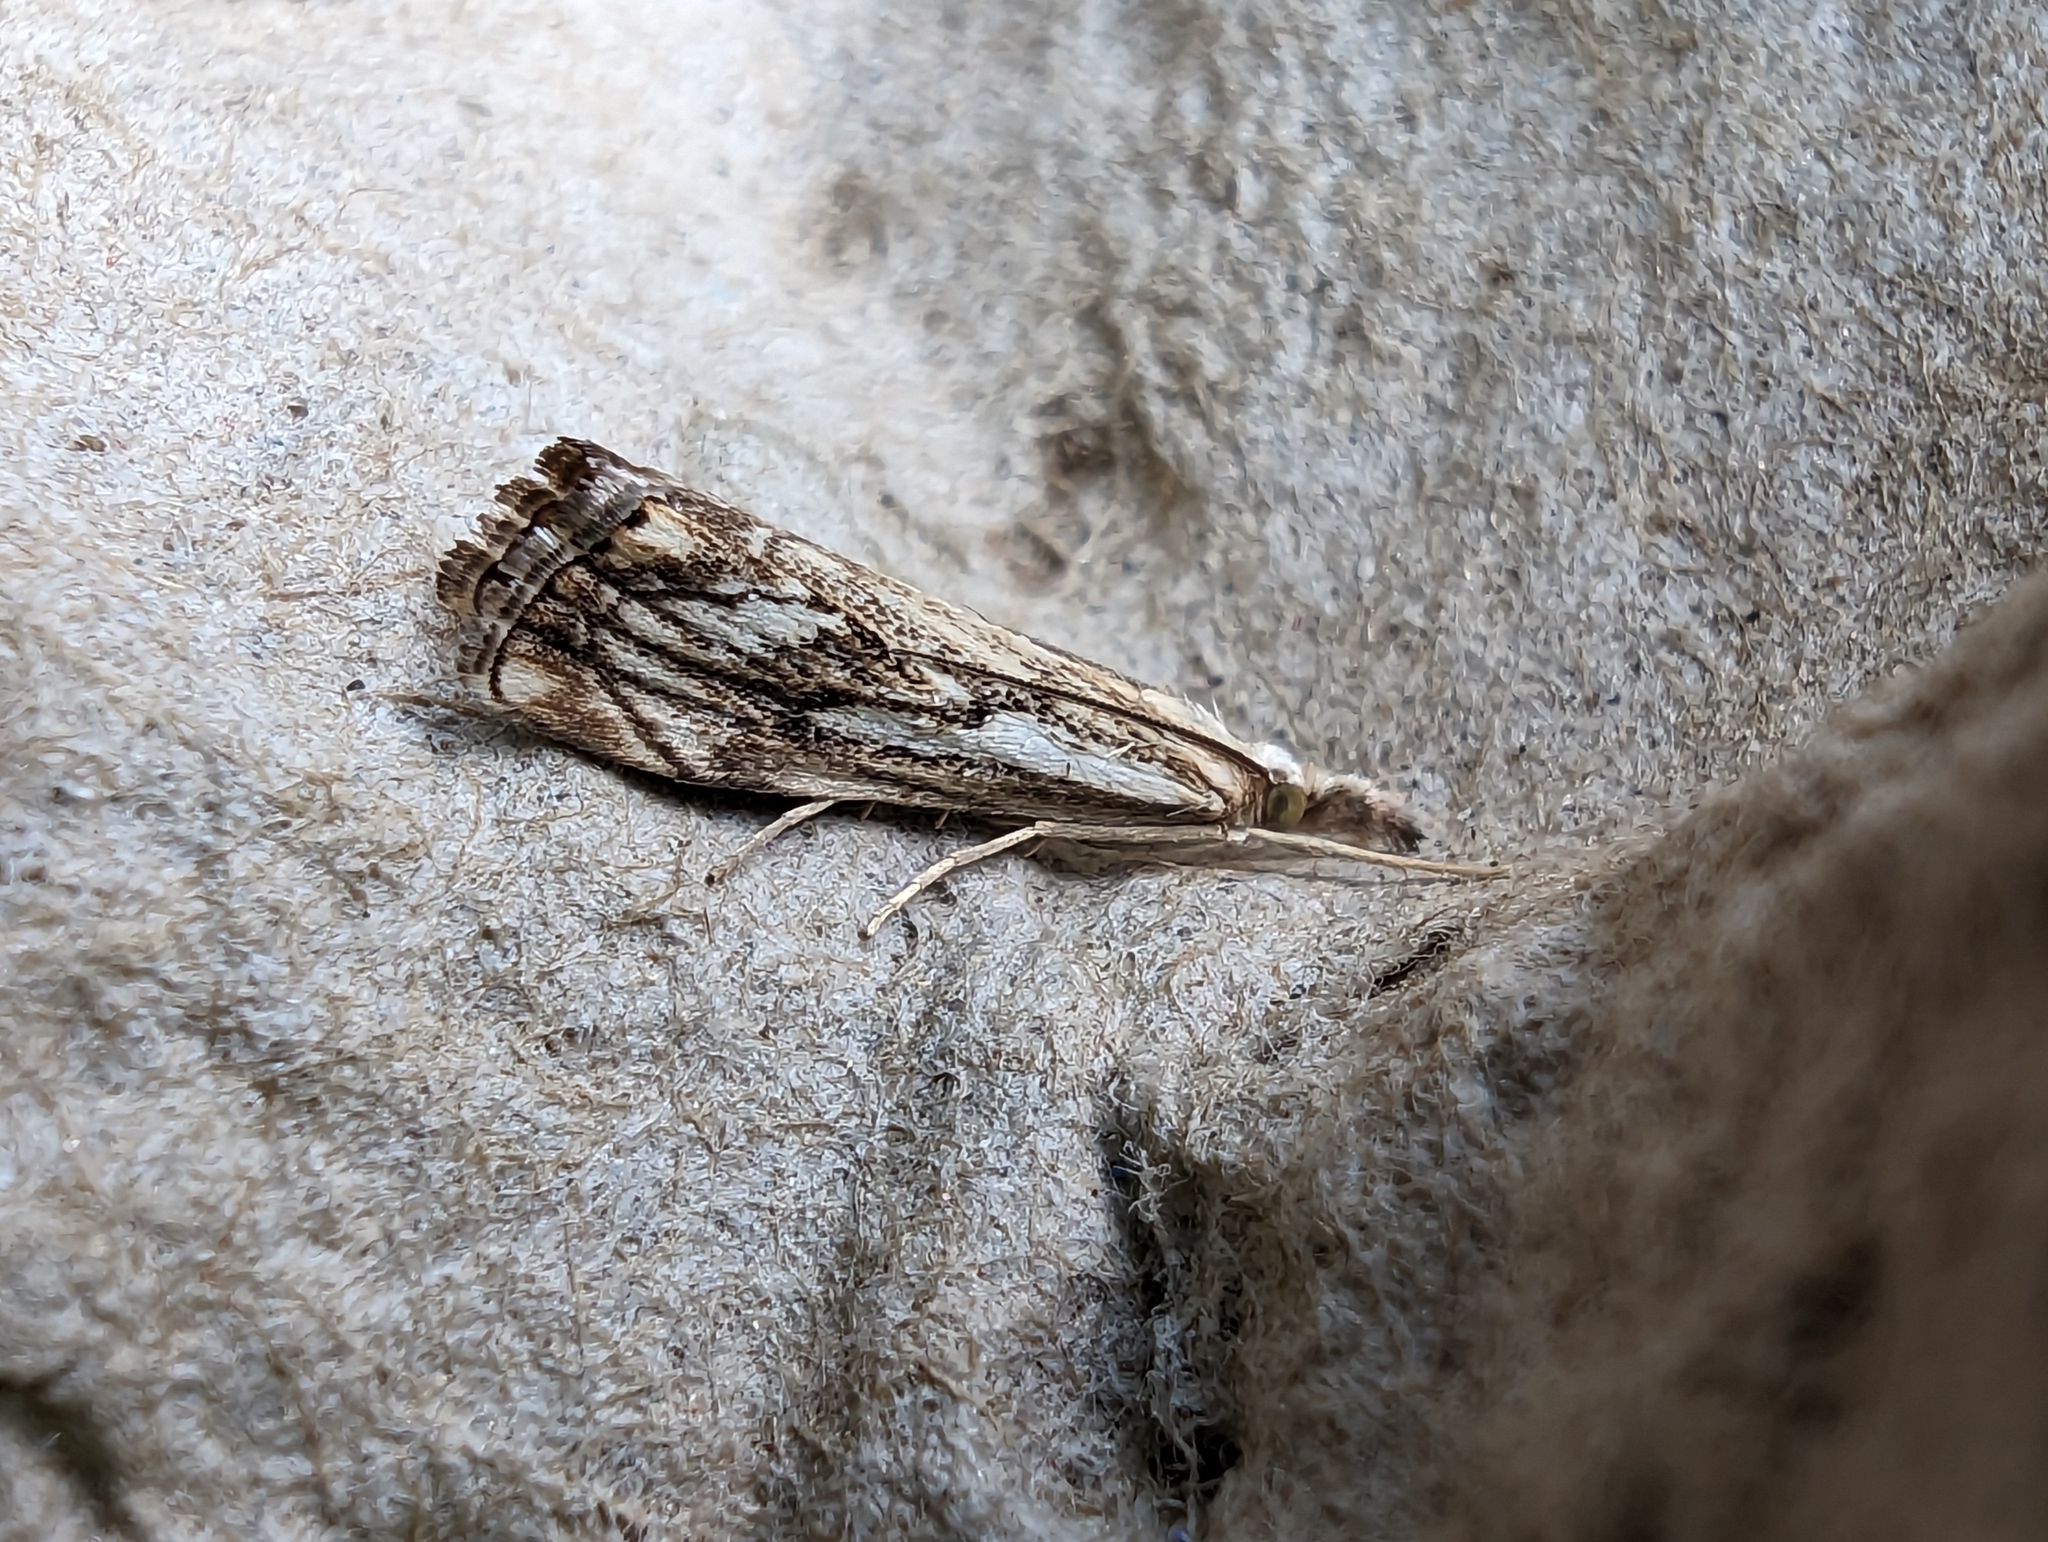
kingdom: Animalia
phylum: Arthropoda
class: Insecta
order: Lepidoptera
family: Crambidae
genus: Catoptria
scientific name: Catoptria falsella
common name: Chequered grass-veneer
